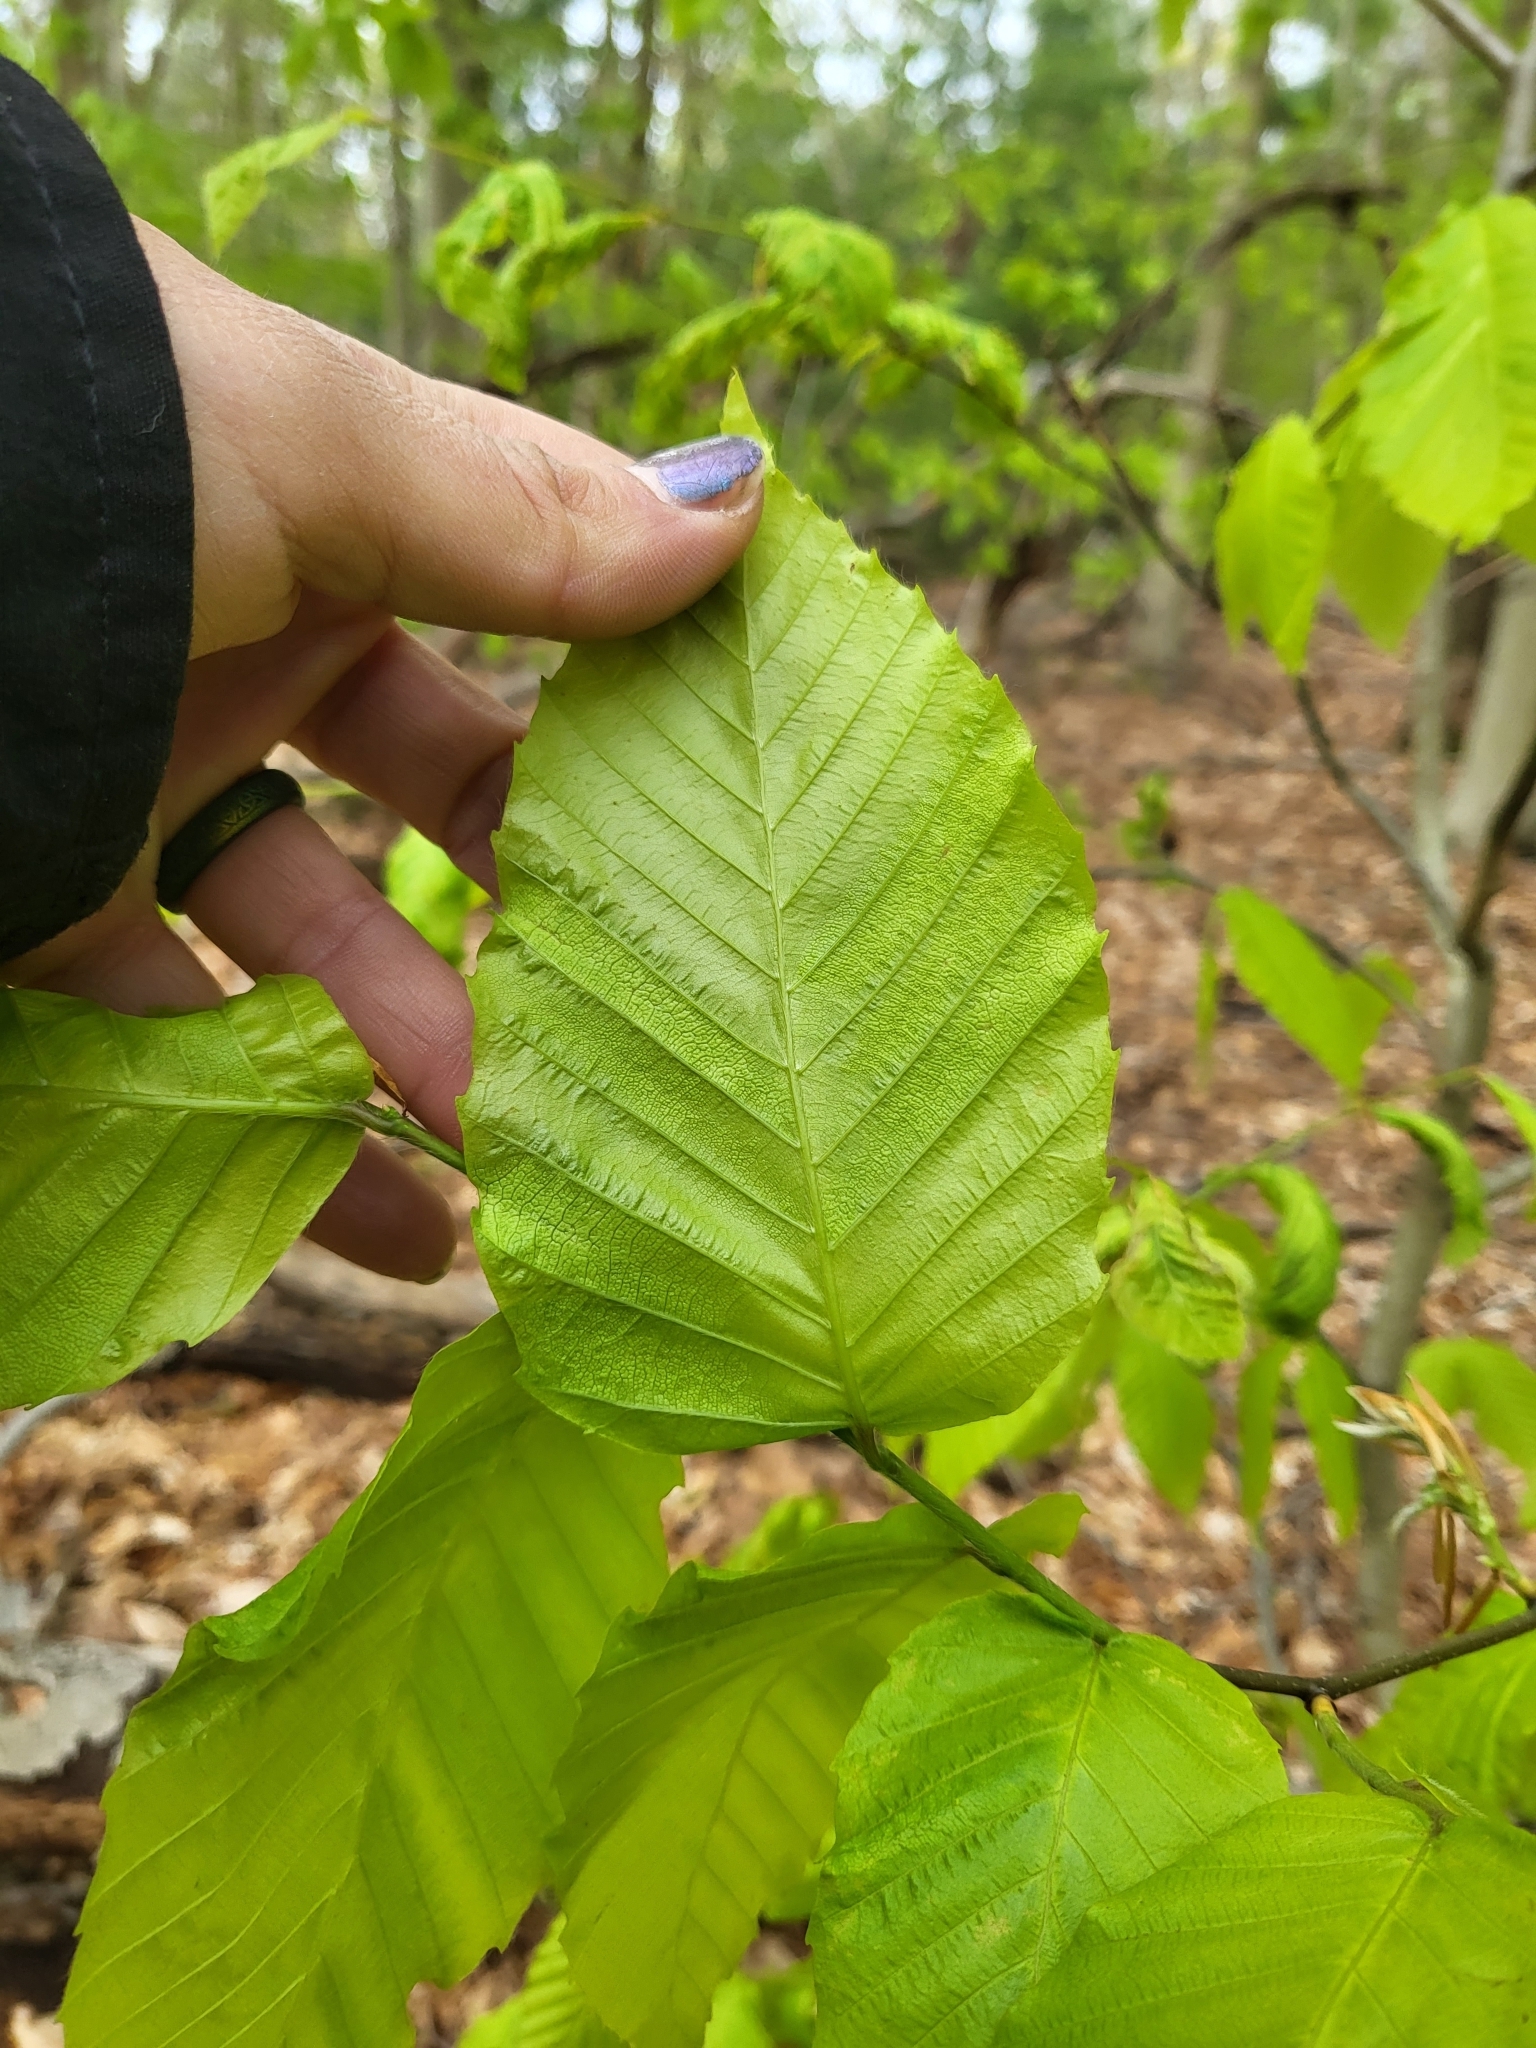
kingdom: Animalia
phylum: Nematoda
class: Chromadorea
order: Rhabditida
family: Anguinidae
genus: Litylenchus
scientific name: Litylenchus crenatae
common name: Beech leaf disease
